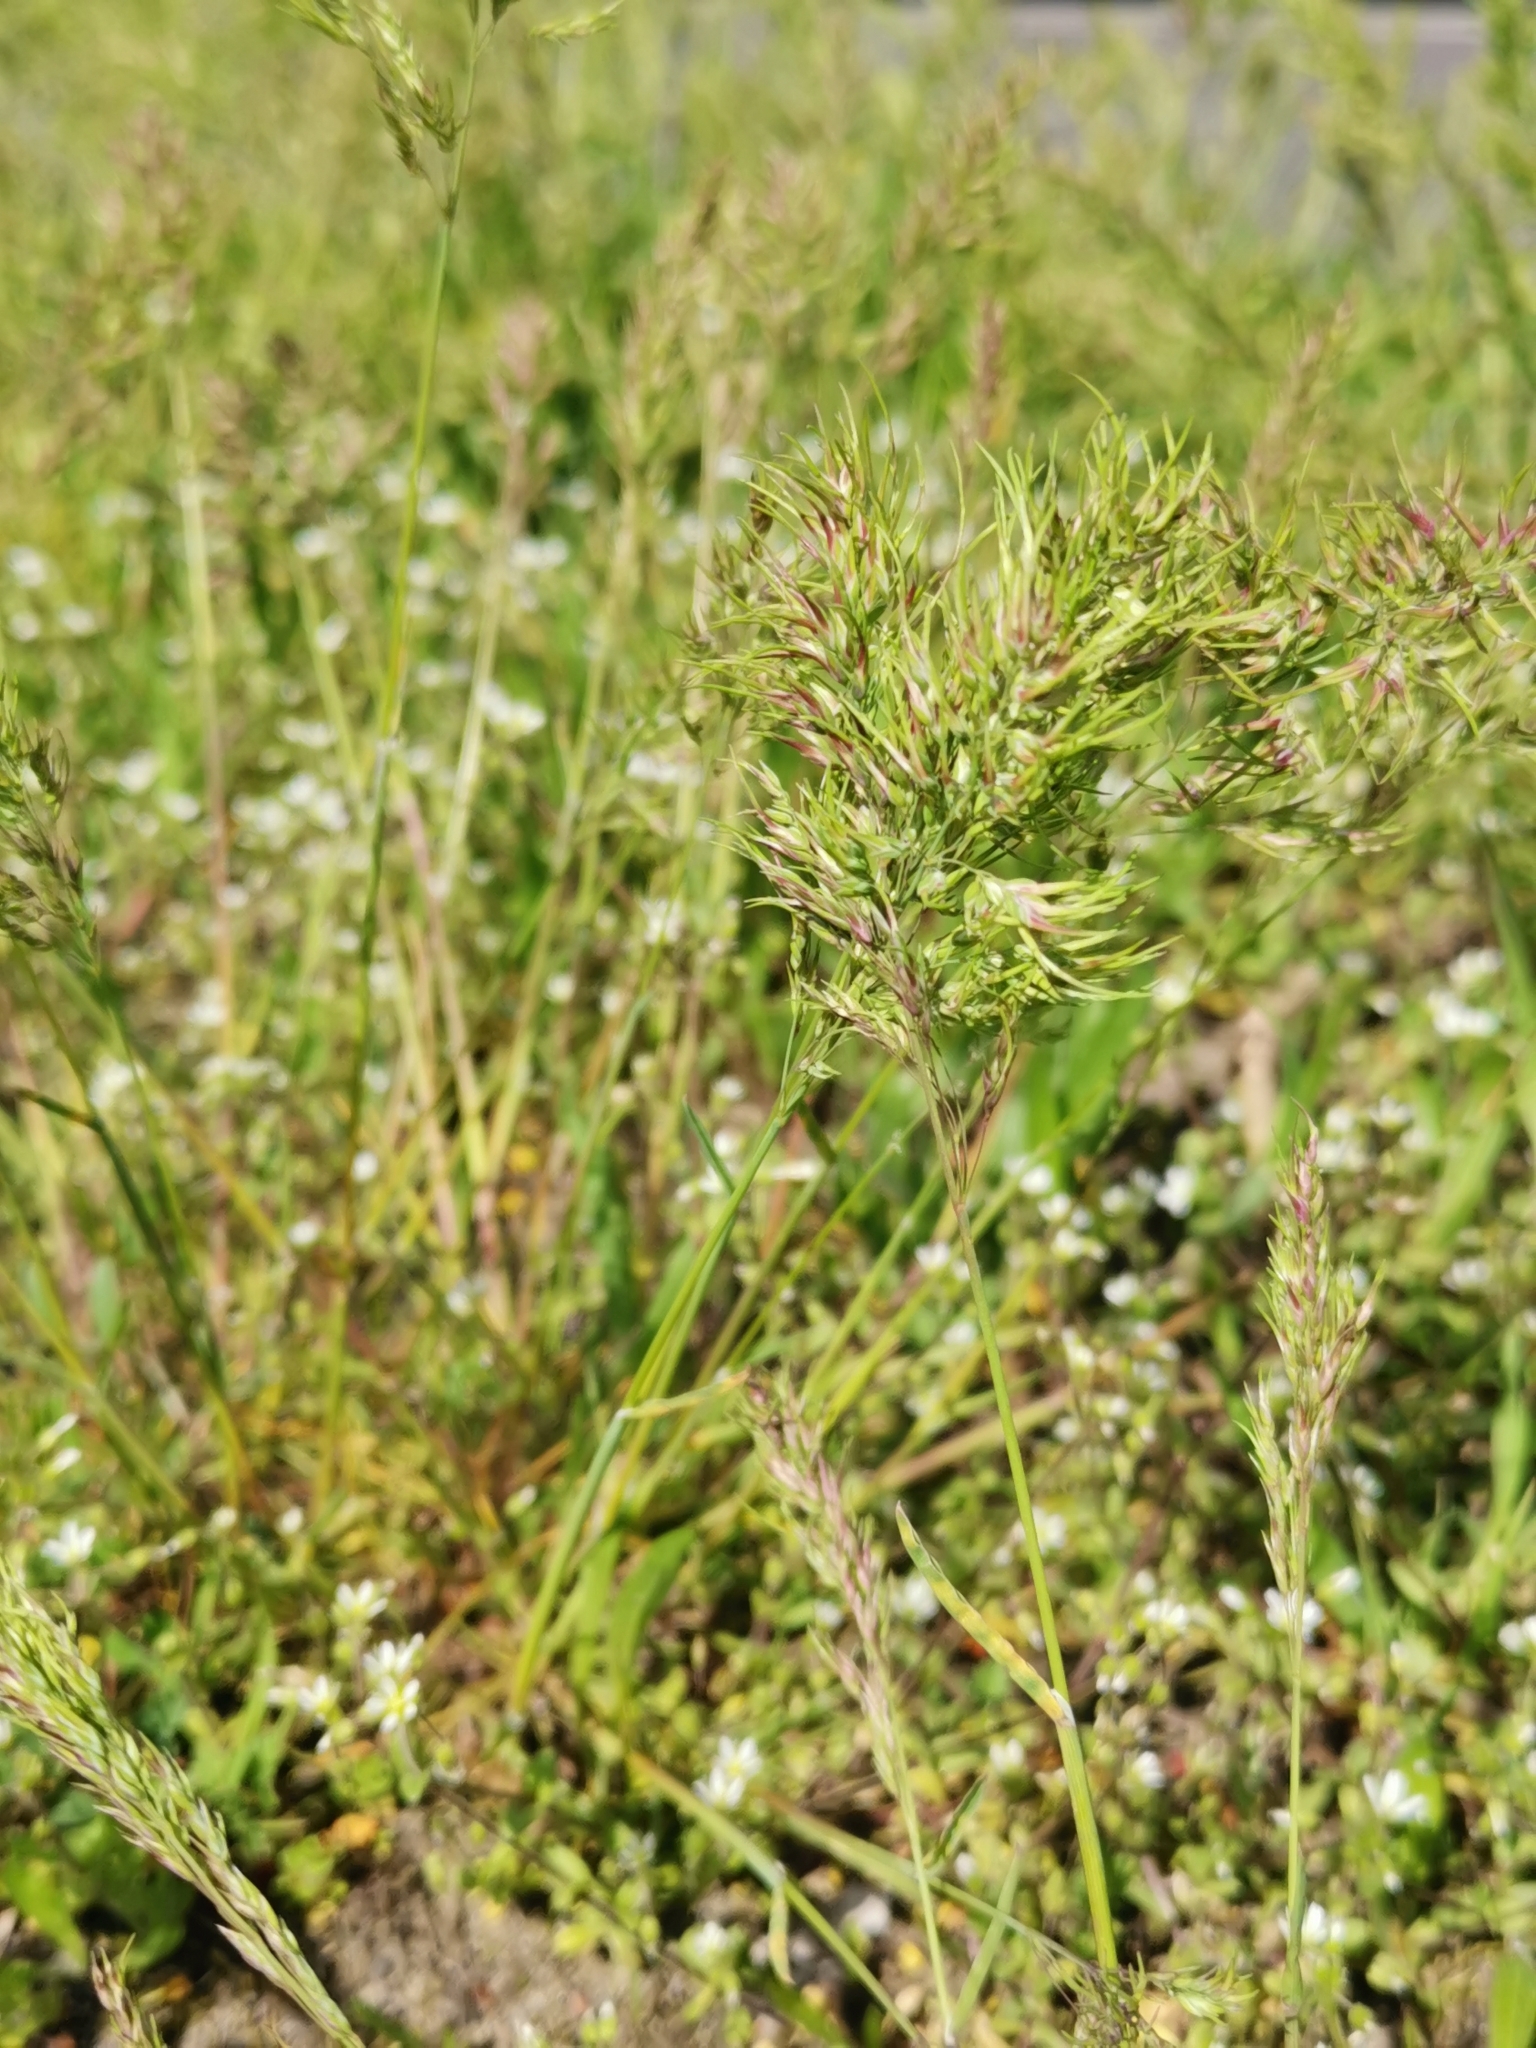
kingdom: Plantae
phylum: Tracheophyta
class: Liliopsida
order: Poales
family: Poaceae
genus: Poa
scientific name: Poa bulbosa
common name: Bulbous bluegrass
